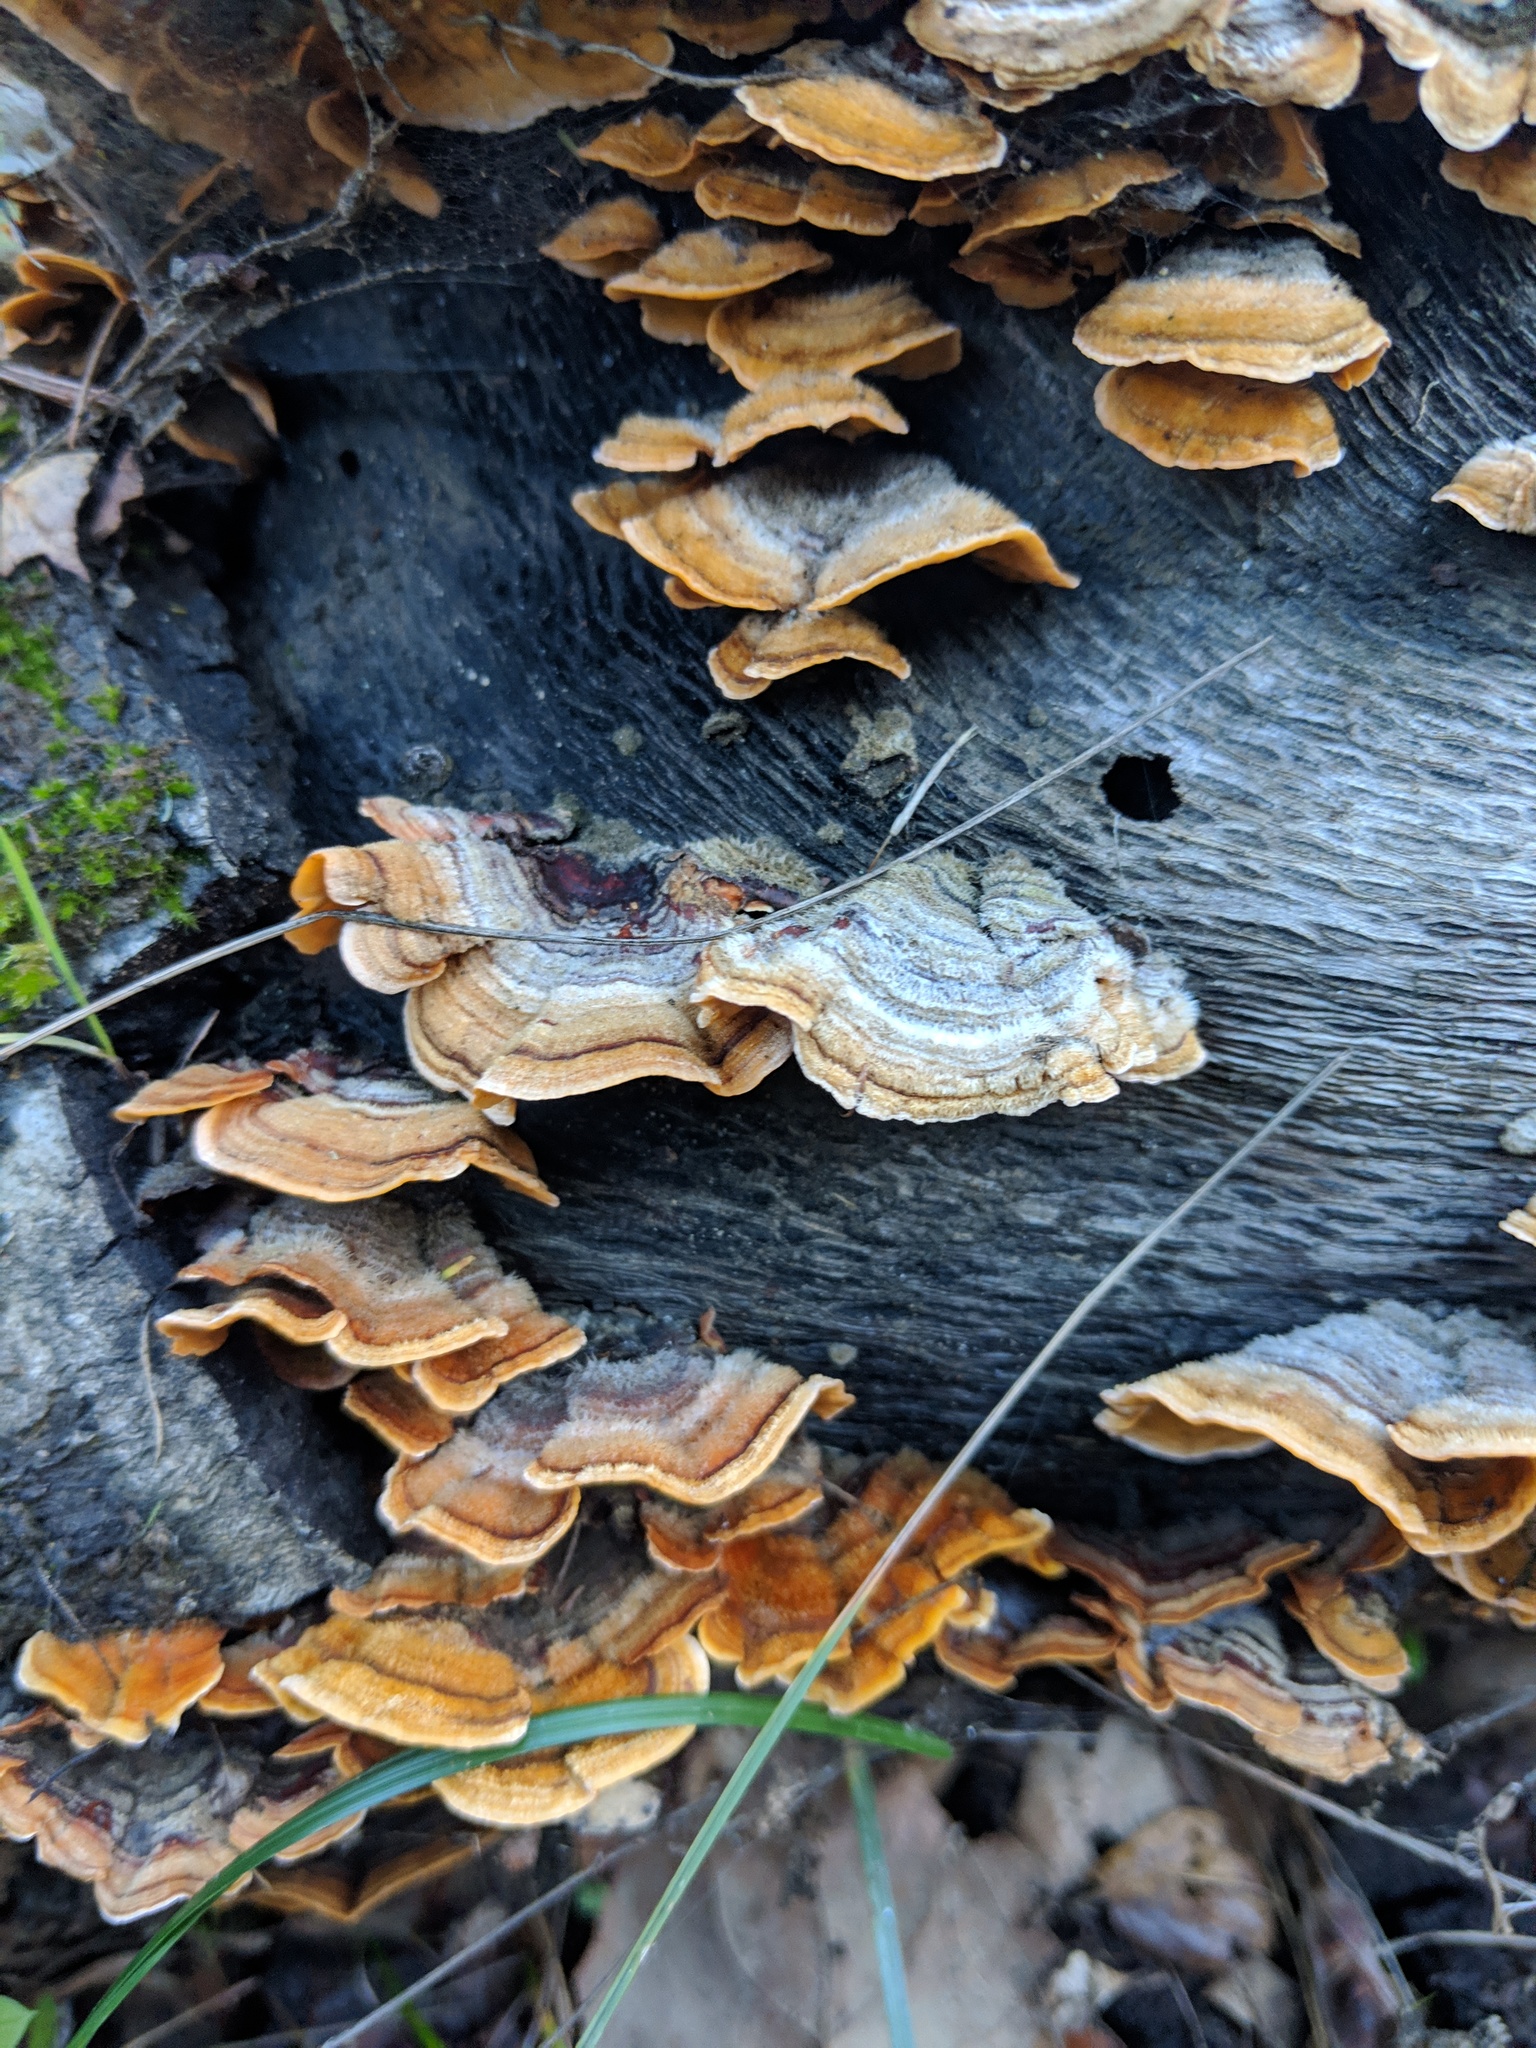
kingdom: Fungi
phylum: Basidiomycota
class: Agaricomycetes
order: Russulales
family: Stereaceae
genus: Stereum
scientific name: Stereum hirsutum
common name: Hairy curtain crust
